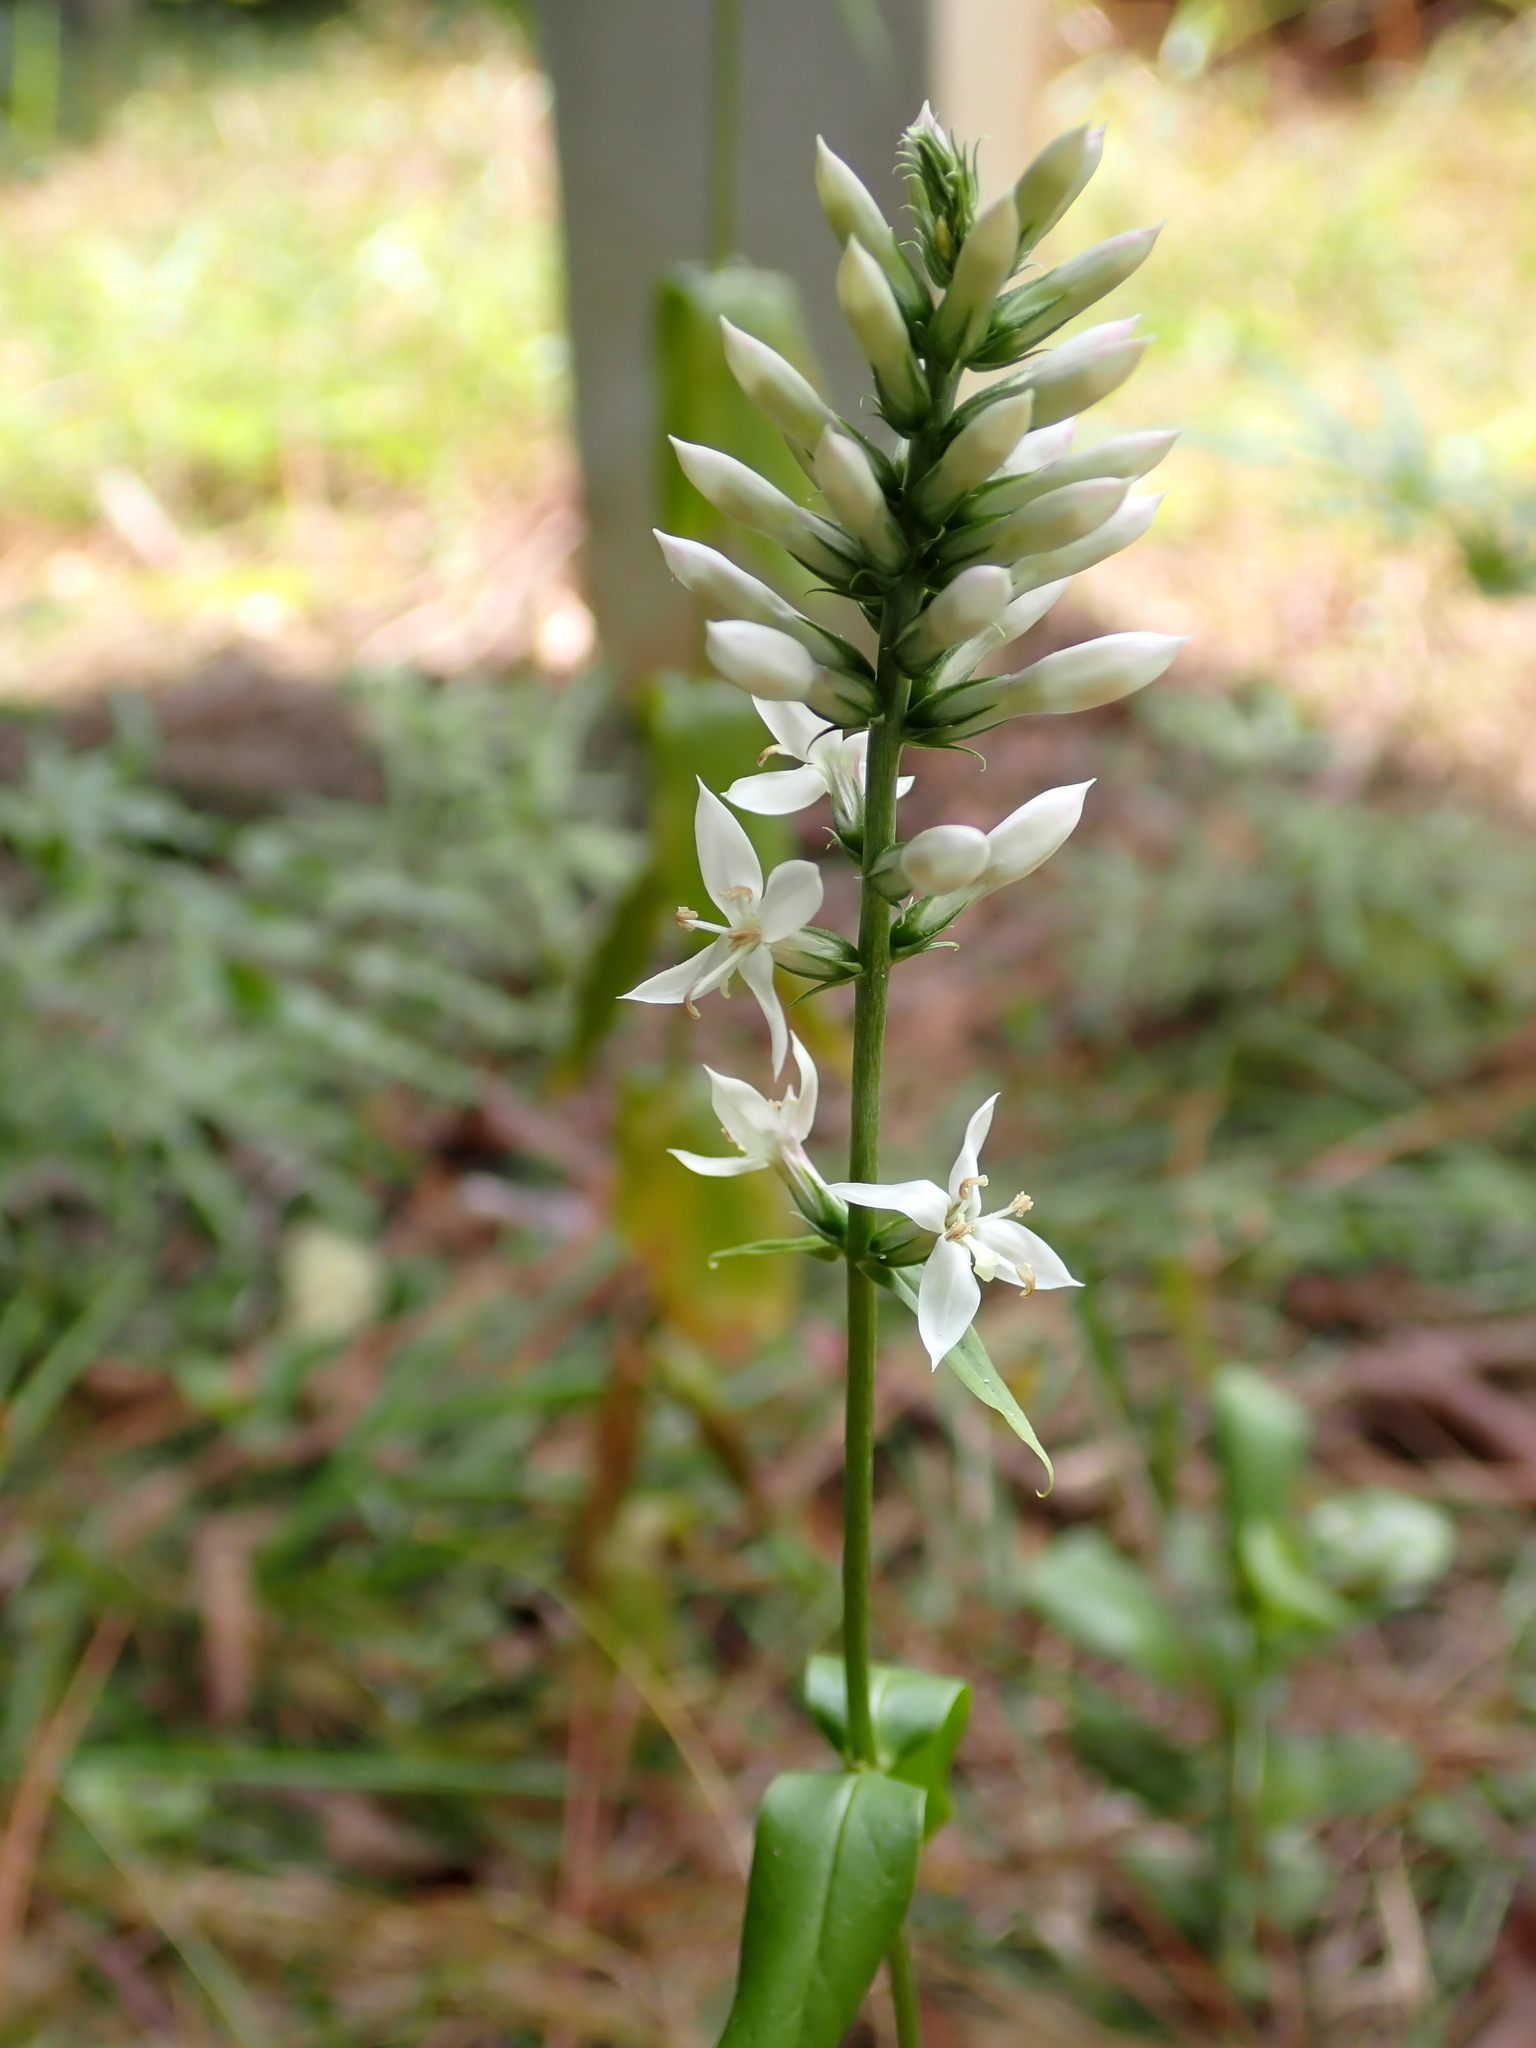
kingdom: Plantae
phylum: Tracheophyta
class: Magnoliopsida
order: Gentianales
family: Gentianaceae
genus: Coutoubea
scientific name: Coutoubea spicata
